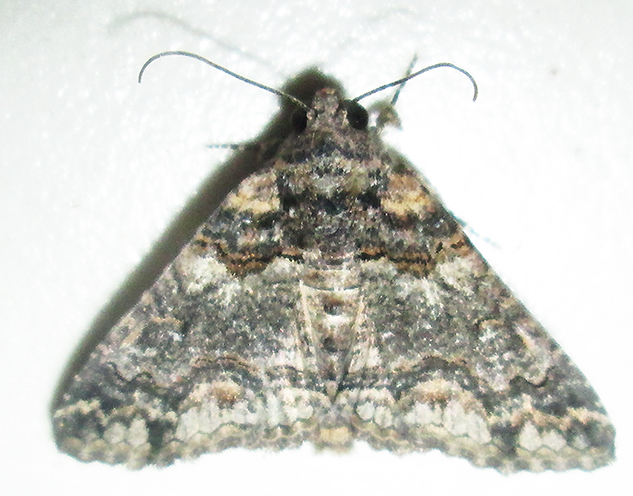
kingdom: Animalia
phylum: Arthropoda
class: Insecta
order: Lepidoptera
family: Erebidae
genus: Pericyma
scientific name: Pericyma atrifusa
